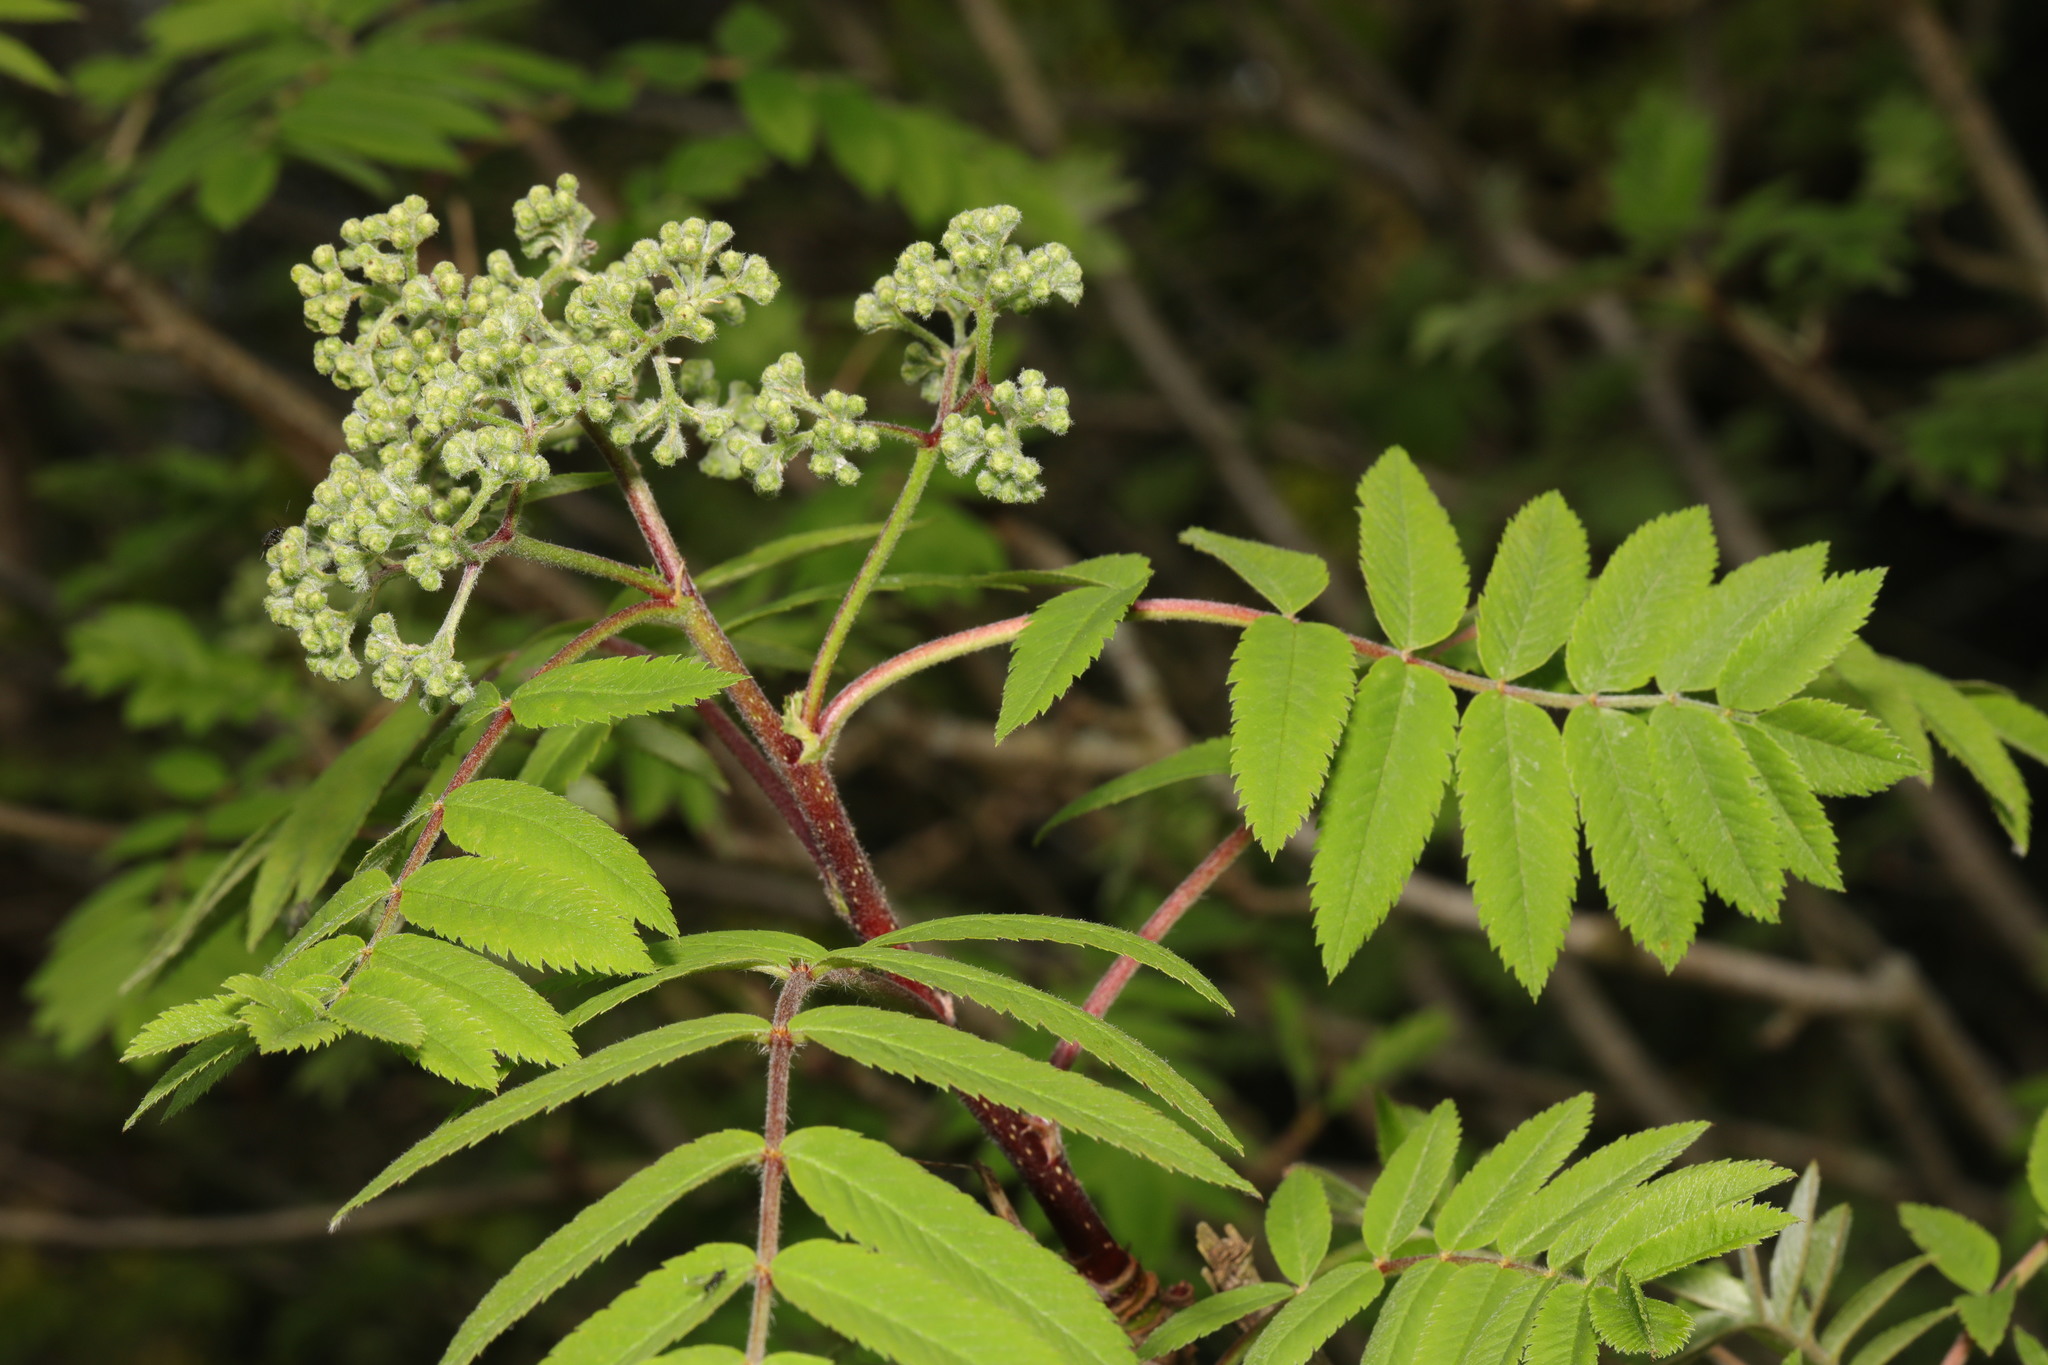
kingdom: Plantae
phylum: Tracheophyta
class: Magnoliopsida
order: Rosales
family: Rosaceae
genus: Sorbus
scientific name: Sorbus aucuparia
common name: Rowan
